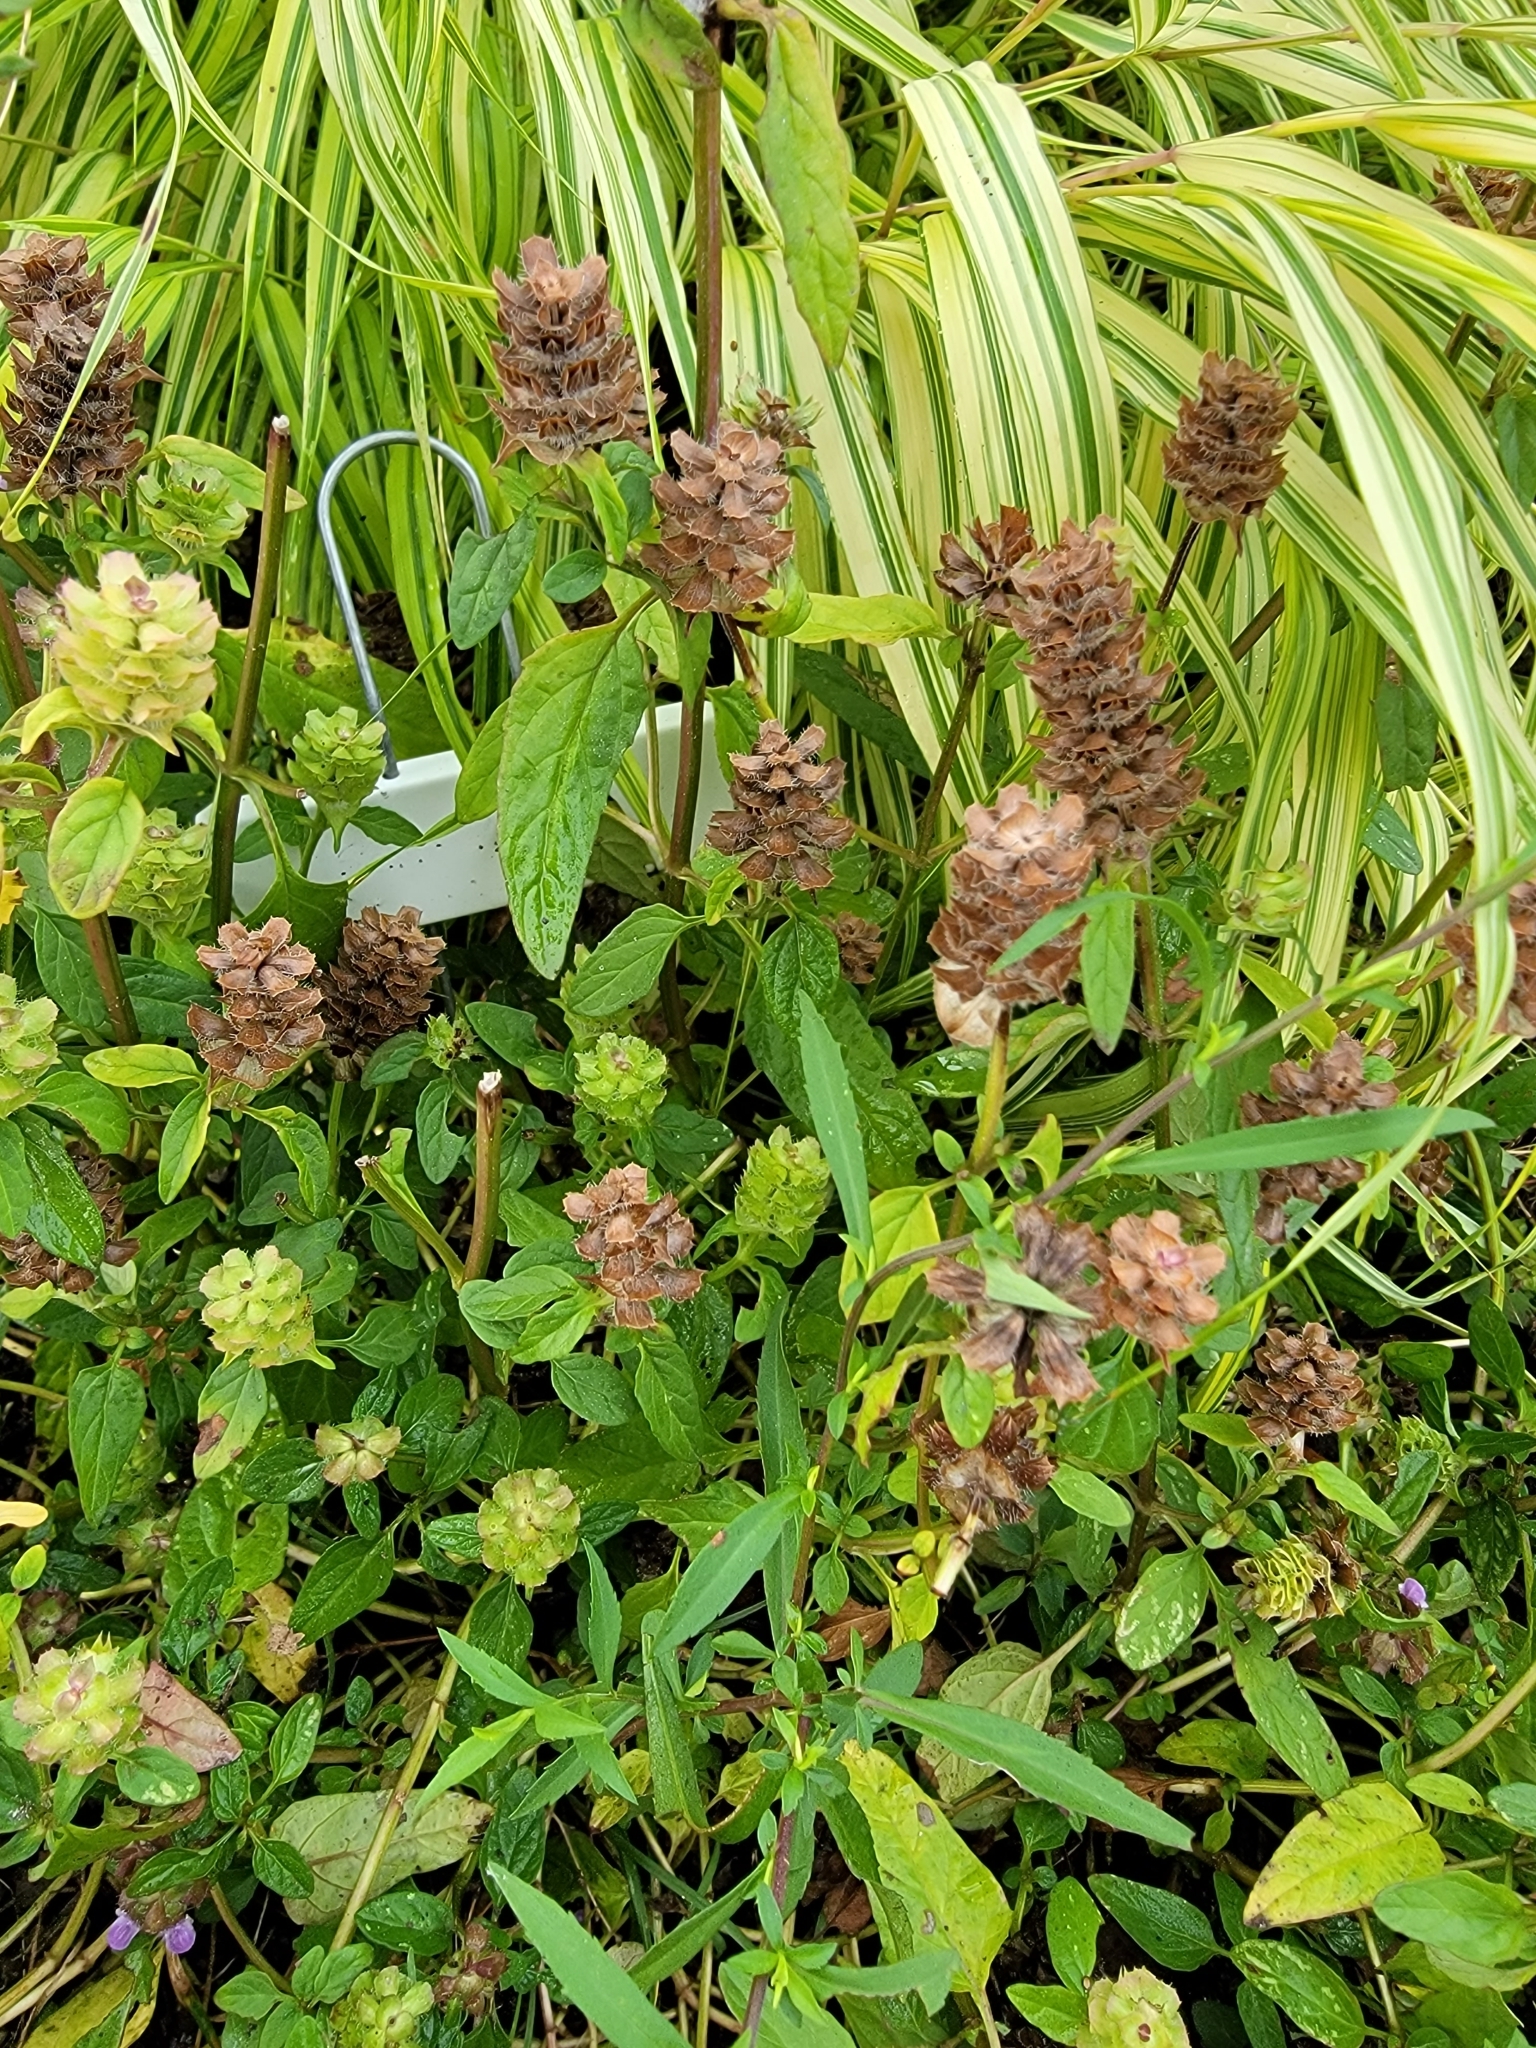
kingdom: Plantae
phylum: Tracheophyta
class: Magnoliopsida
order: Lamiales
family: Lamiaceae
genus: Prunella
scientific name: Prunella vulgaris
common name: Heal-all
